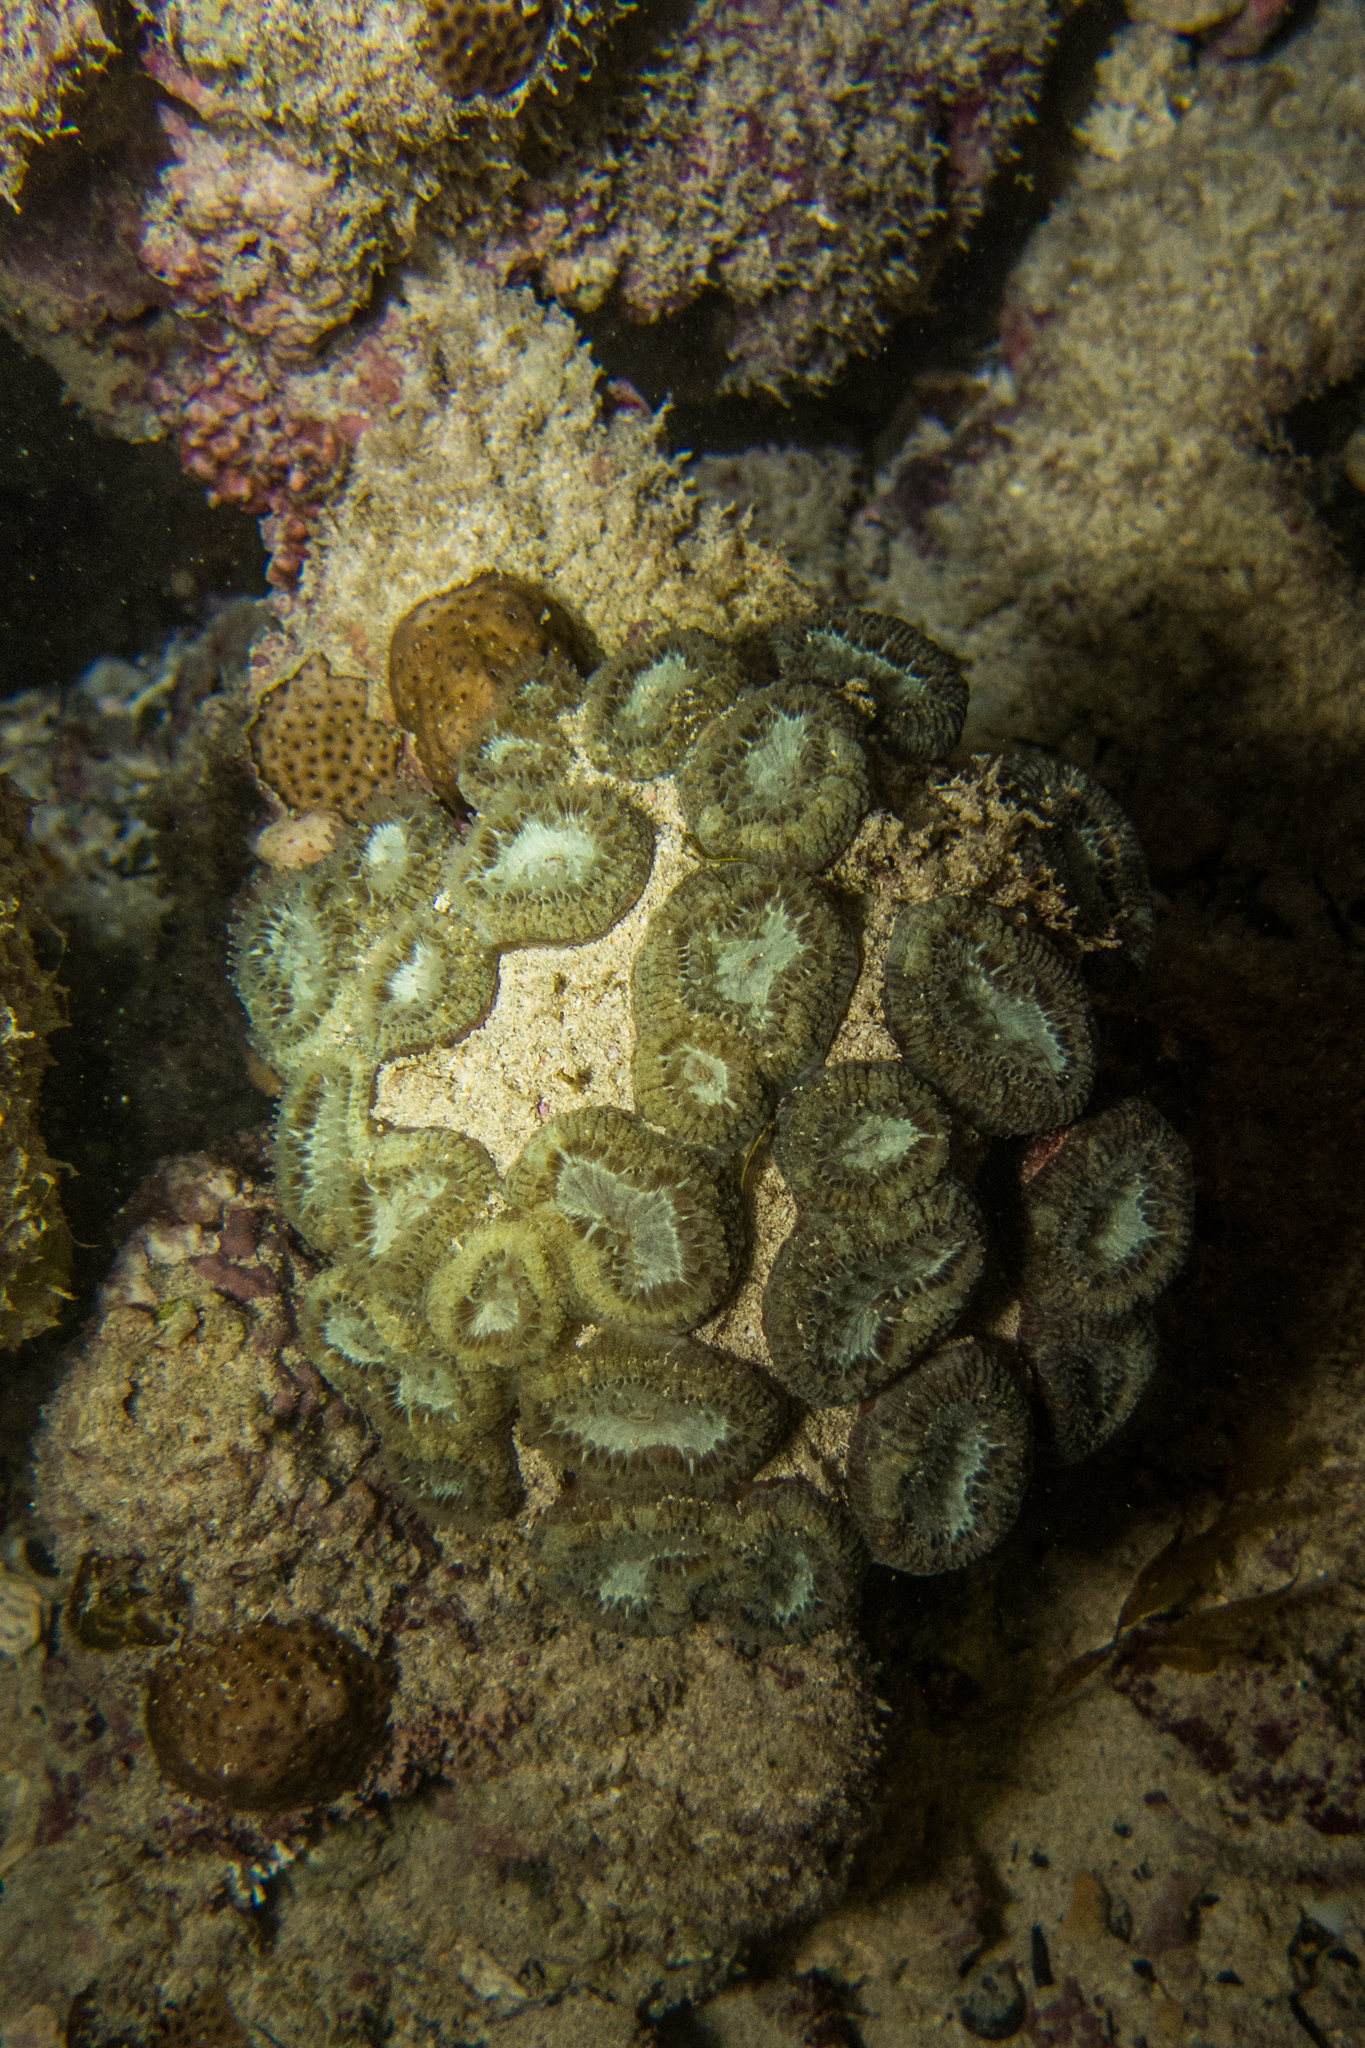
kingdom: Animalia
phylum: Cnidaria
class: Anthozoa
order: Scleractinia
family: Faviidae
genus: Mussismilia
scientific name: Mussismilia harttii
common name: Brain coral
